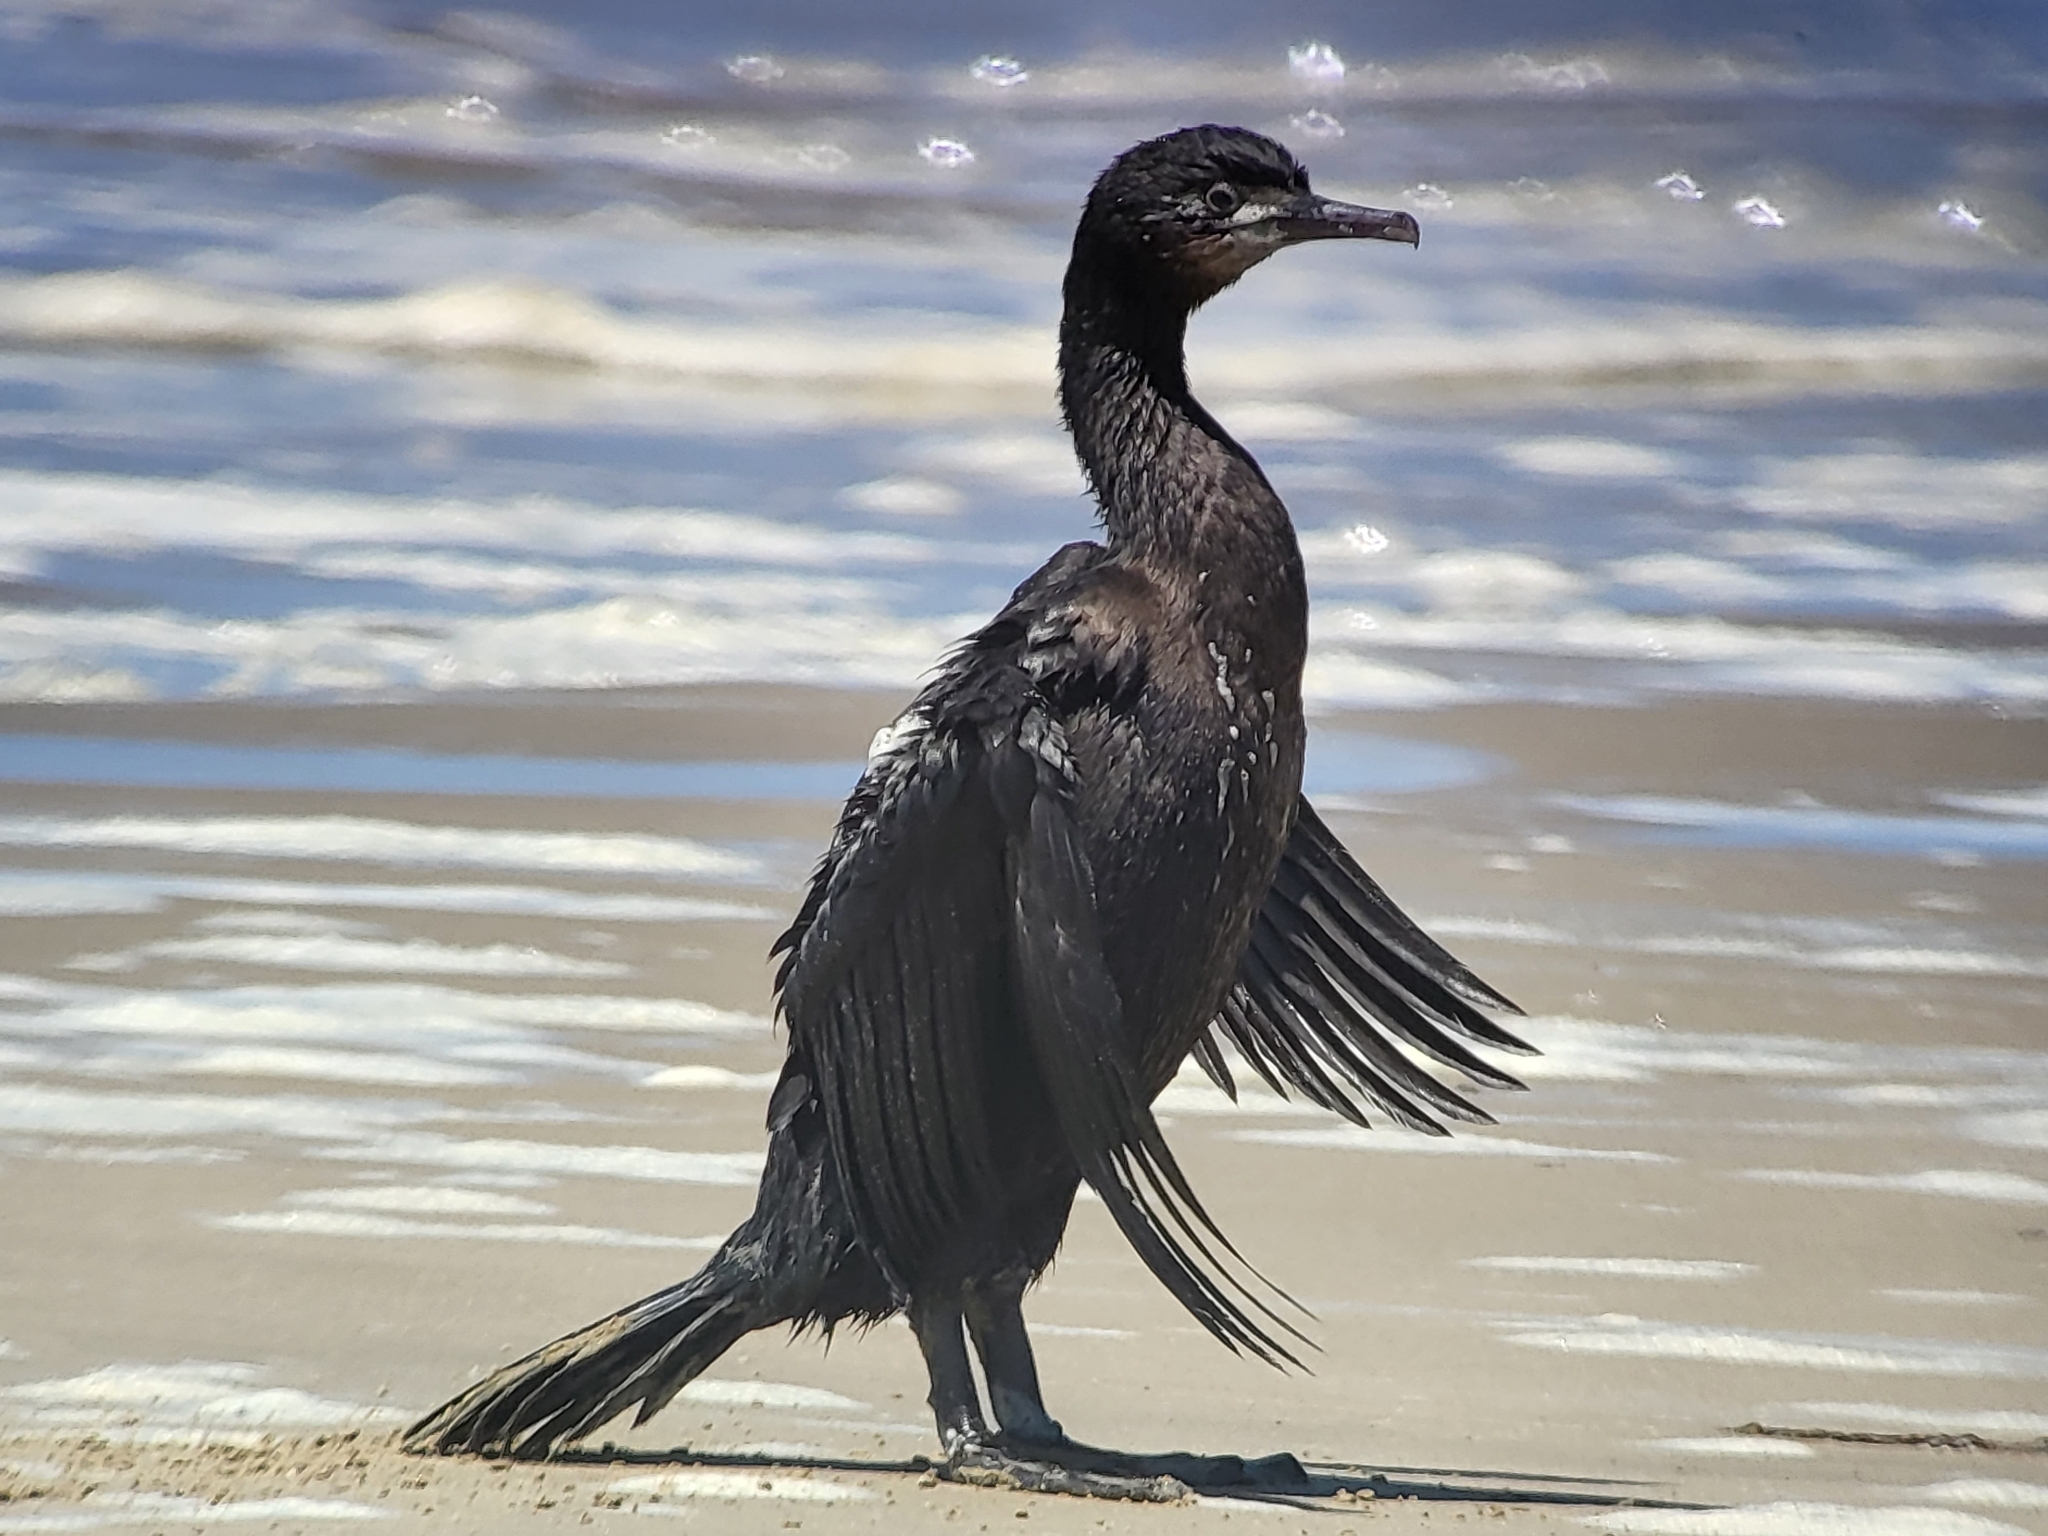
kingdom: Animalia
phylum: Chordata
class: Aves
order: Suliformes
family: Phalacrocoracidae
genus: Urile
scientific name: Urile penicillatus
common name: Brandt's cormorant
